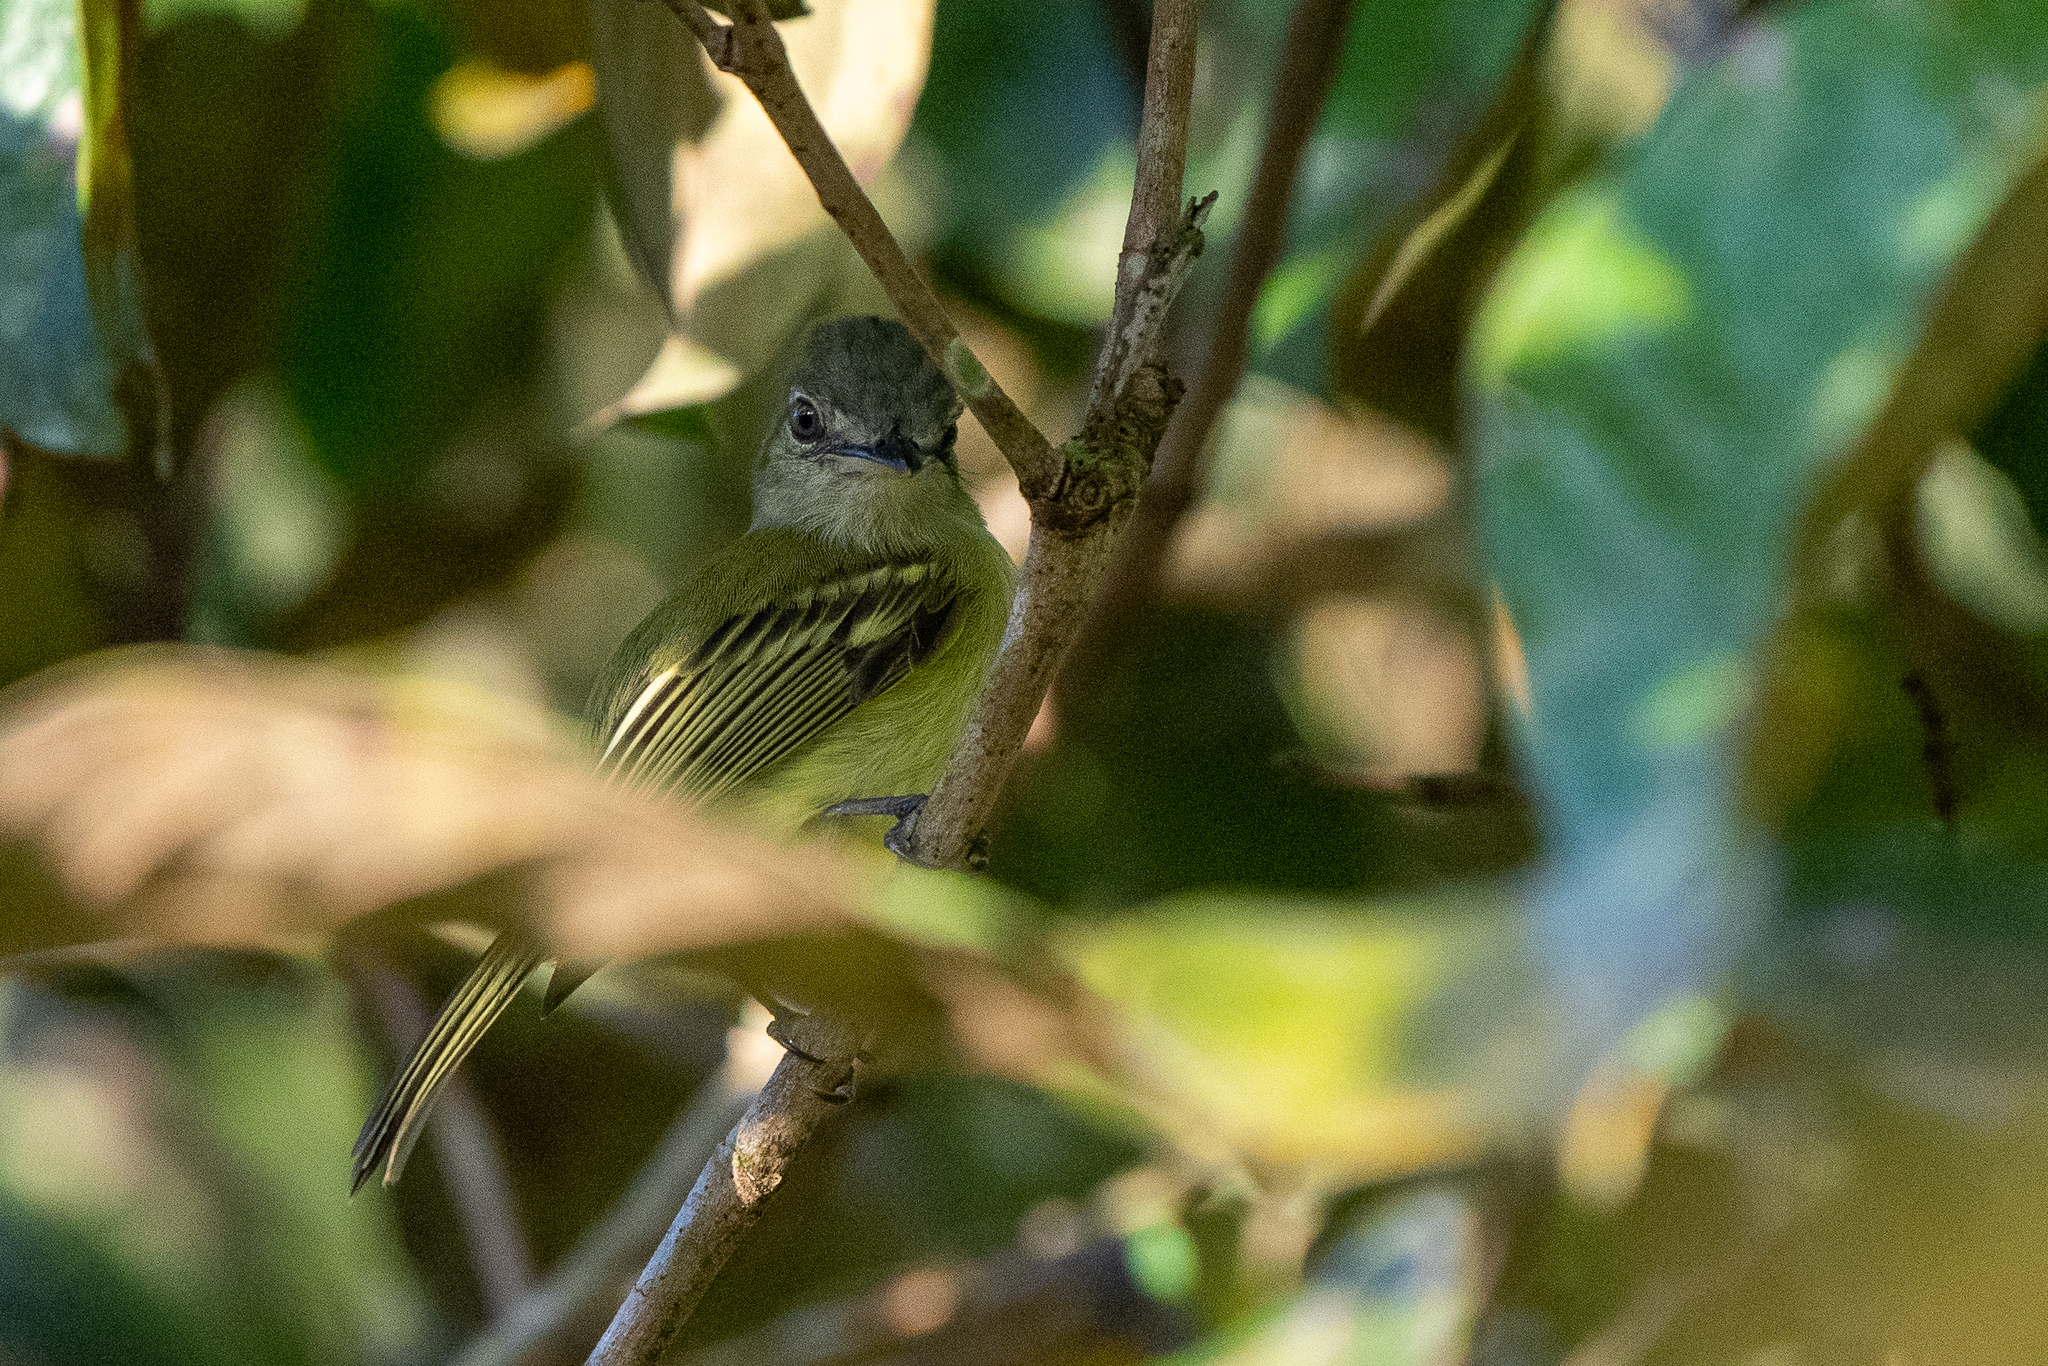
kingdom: Animalia
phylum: Chordata
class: Aves
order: Passeriformes
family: Tyrannidae
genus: Tolmomyias
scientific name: Tolmomyias sulphurescens
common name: Yellow-olive flycatcher
